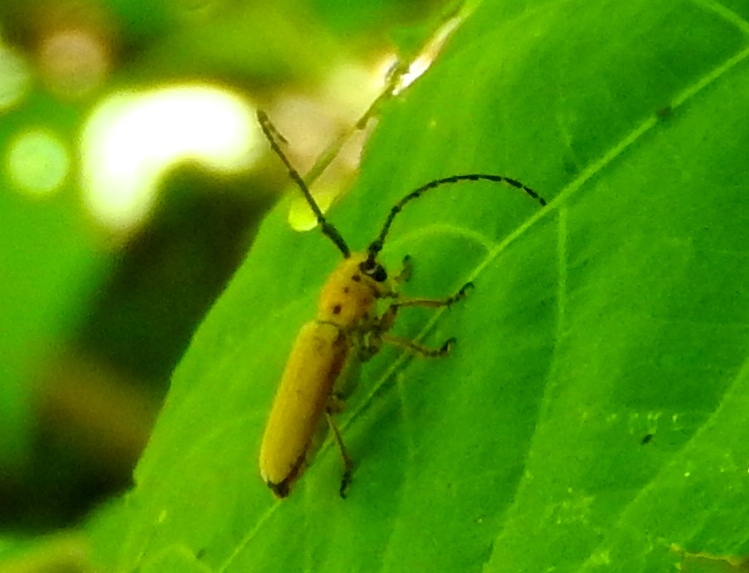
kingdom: Animalia
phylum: Arthropoda
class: Insecta
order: Coleoptera
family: Cerambycidae
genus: Essostrutha
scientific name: Essostrutha laeta
